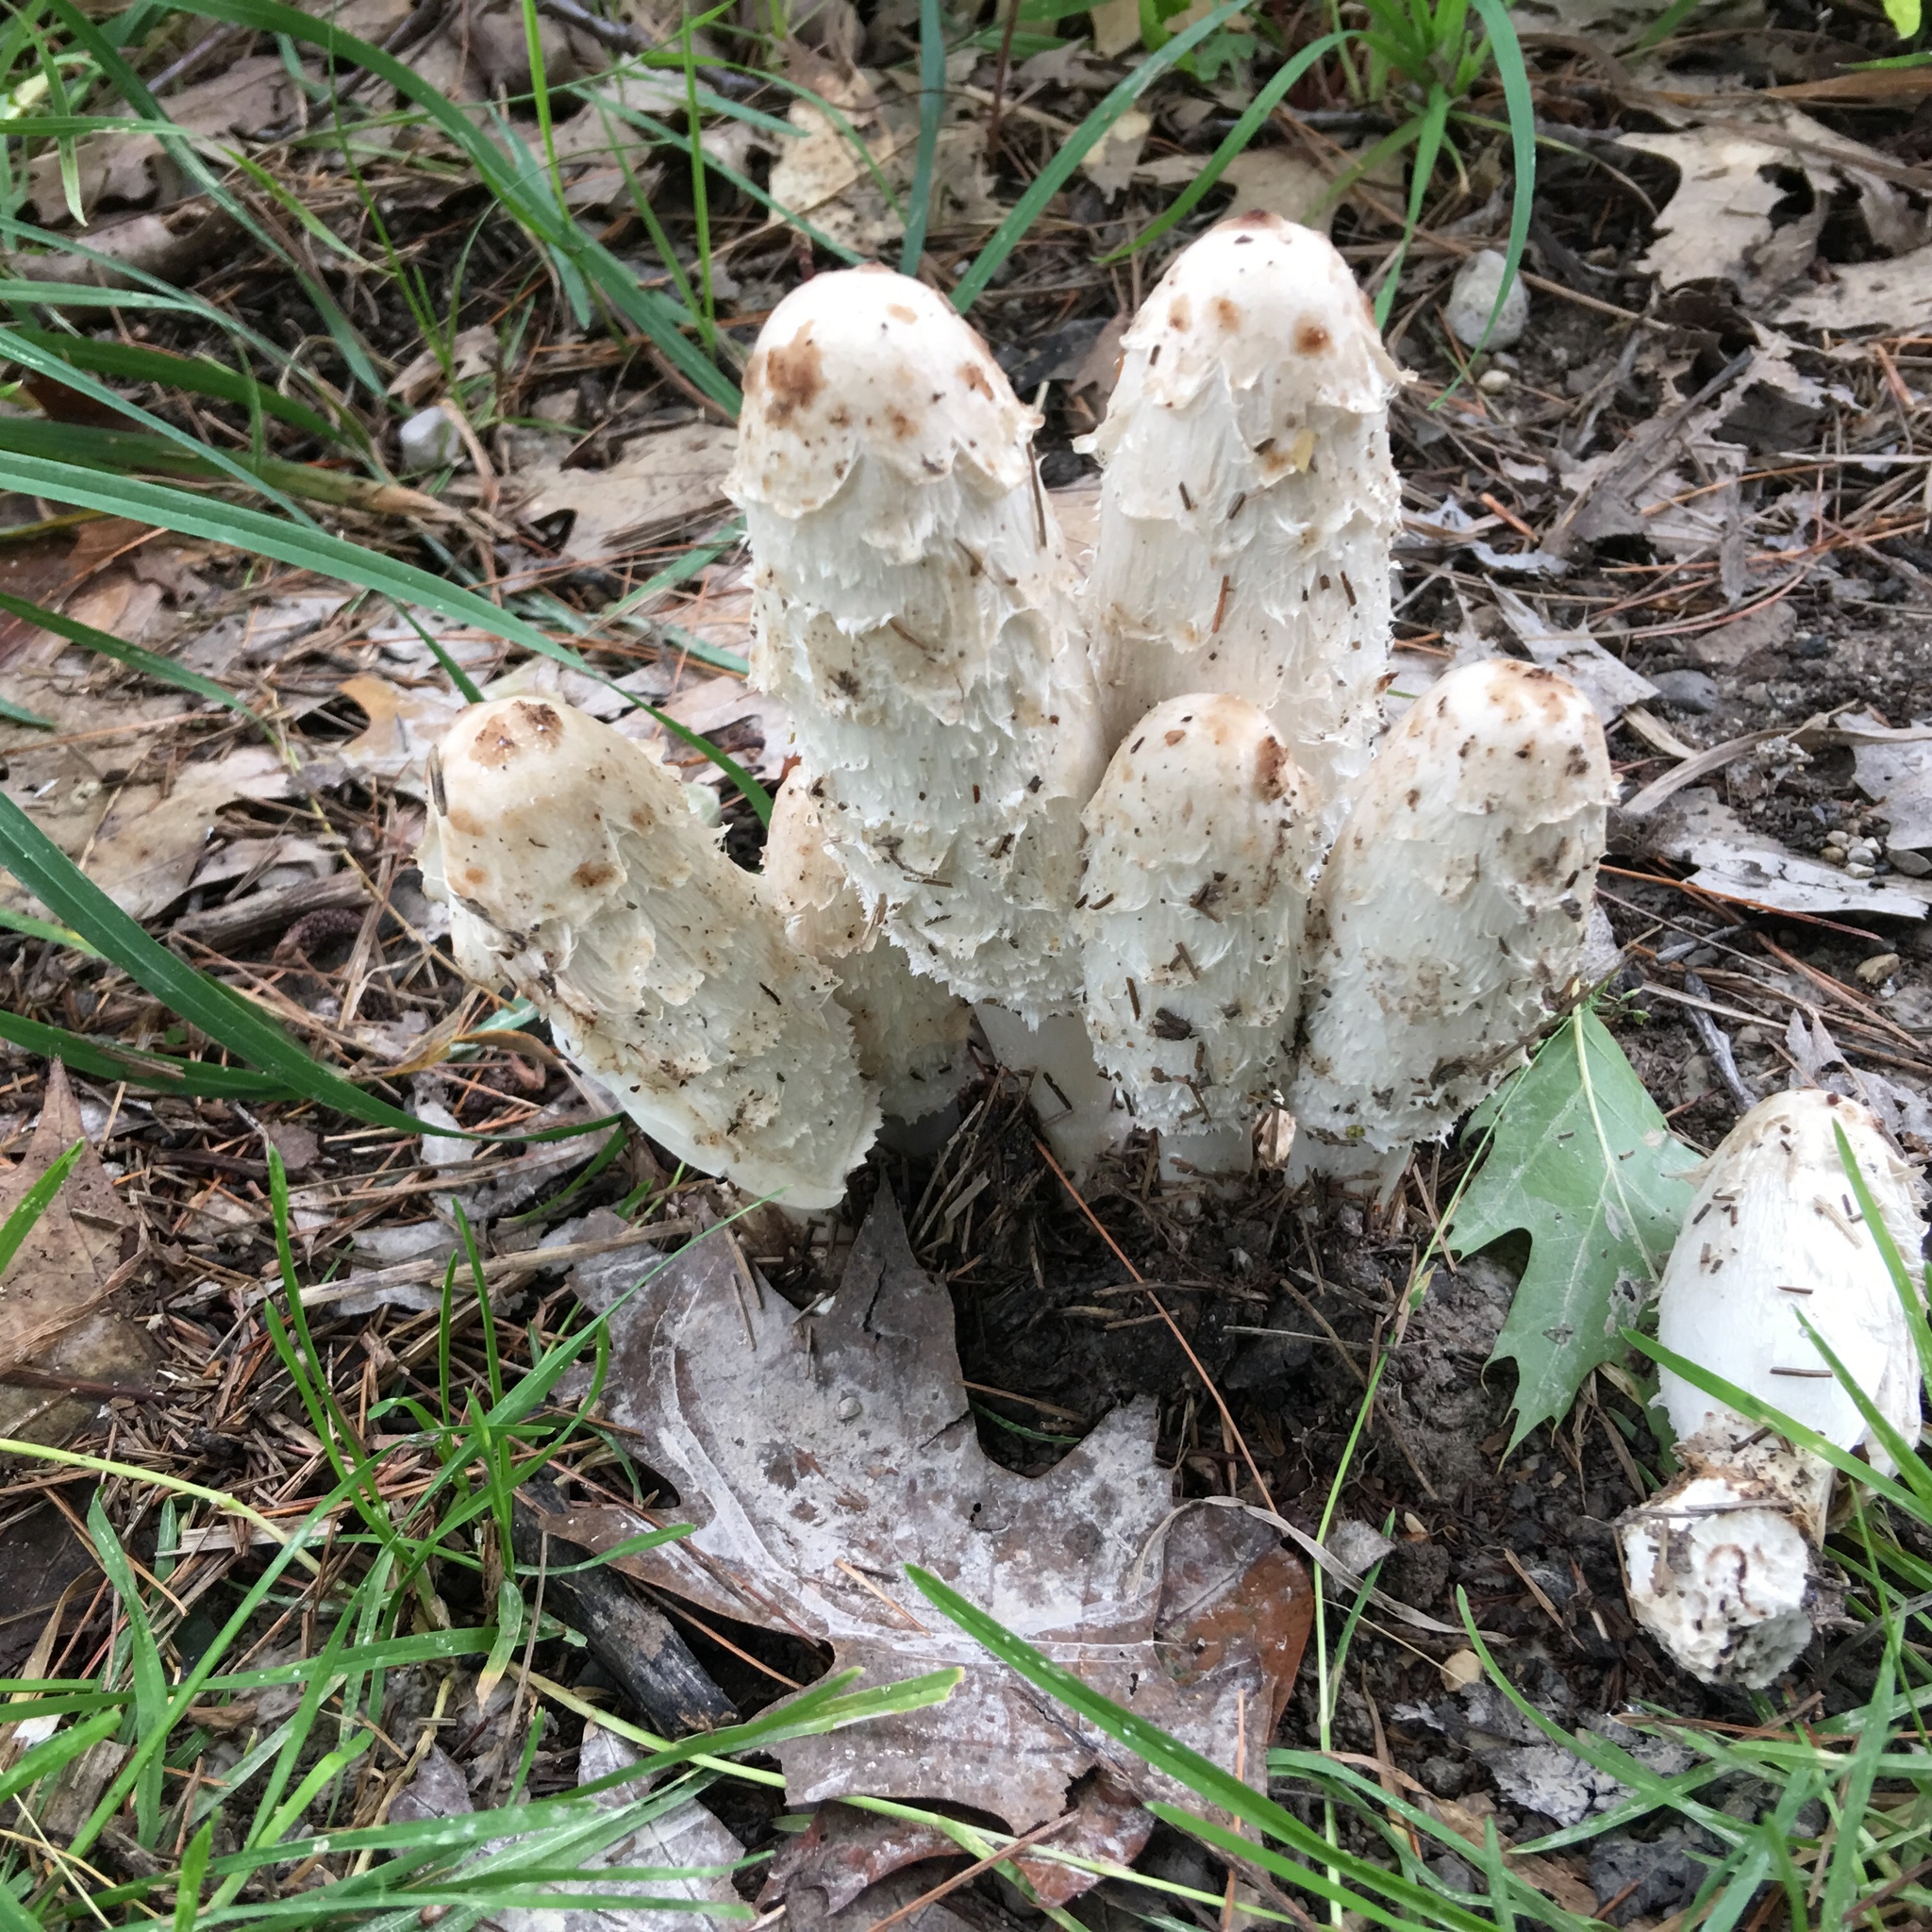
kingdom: Fungi
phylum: Basidiomycota
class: Agaricomycetes
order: Agaricales
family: Agaricaceae
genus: Coprinus
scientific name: Coprinus comatus
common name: Lawyer's wig
